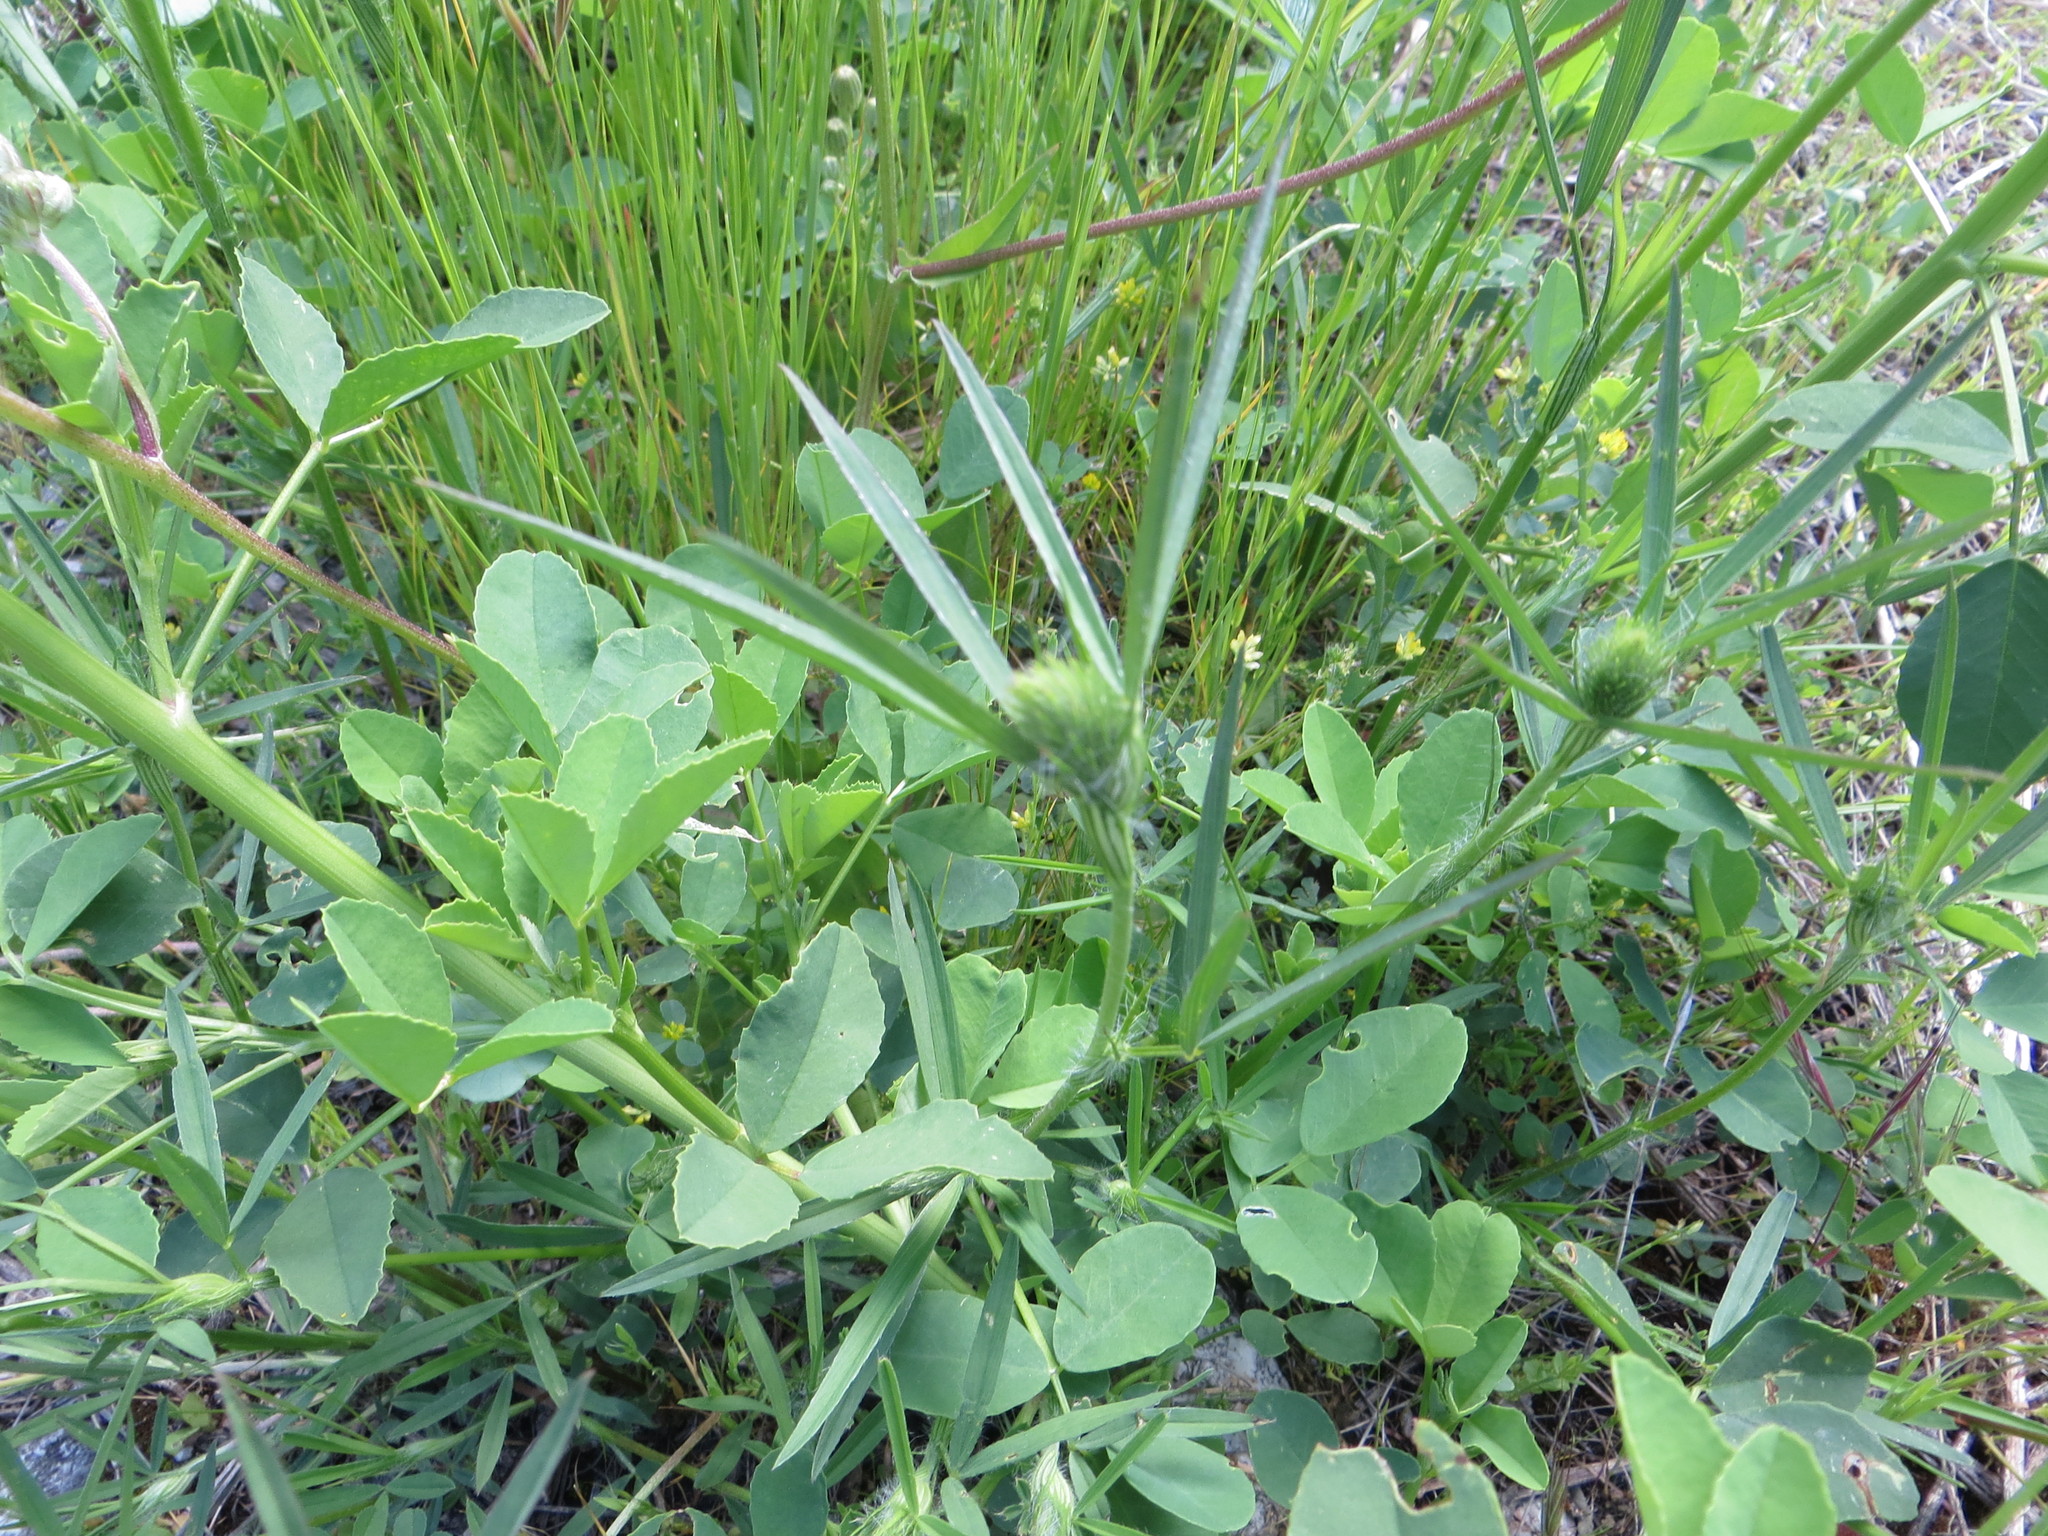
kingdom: Plantae
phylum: Tracheophyta
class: Magnoliopsida
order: Fabales
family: Fabaceae
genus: Trifolium
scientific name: Trifolium angustifolium
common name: Narrow clover
